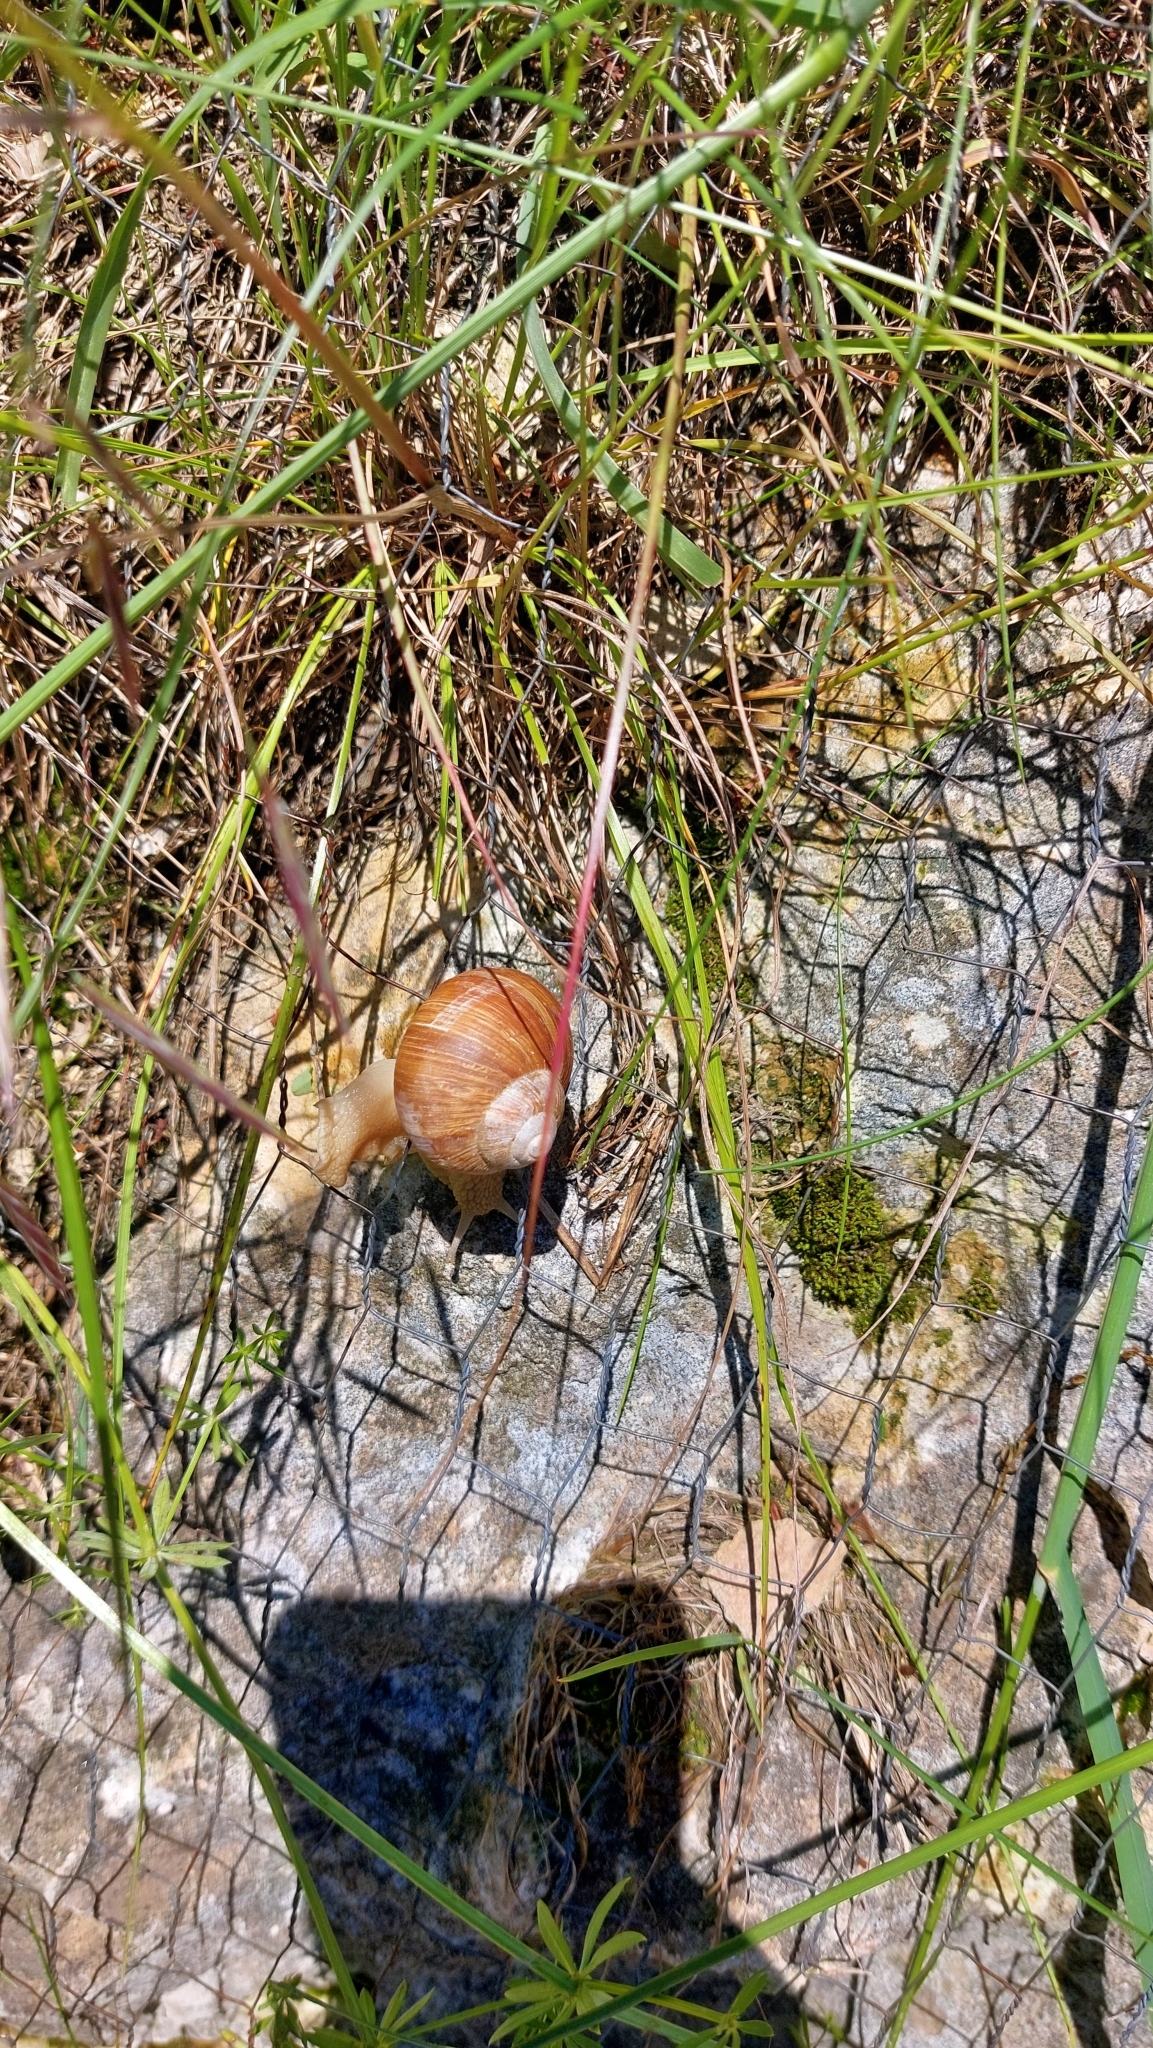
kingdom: Animalia
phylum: Mollusca
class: Gastropoda
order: Stylommatophora
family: Helicidae
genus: Helix
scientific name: Helix pomatia
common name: Roman snail
